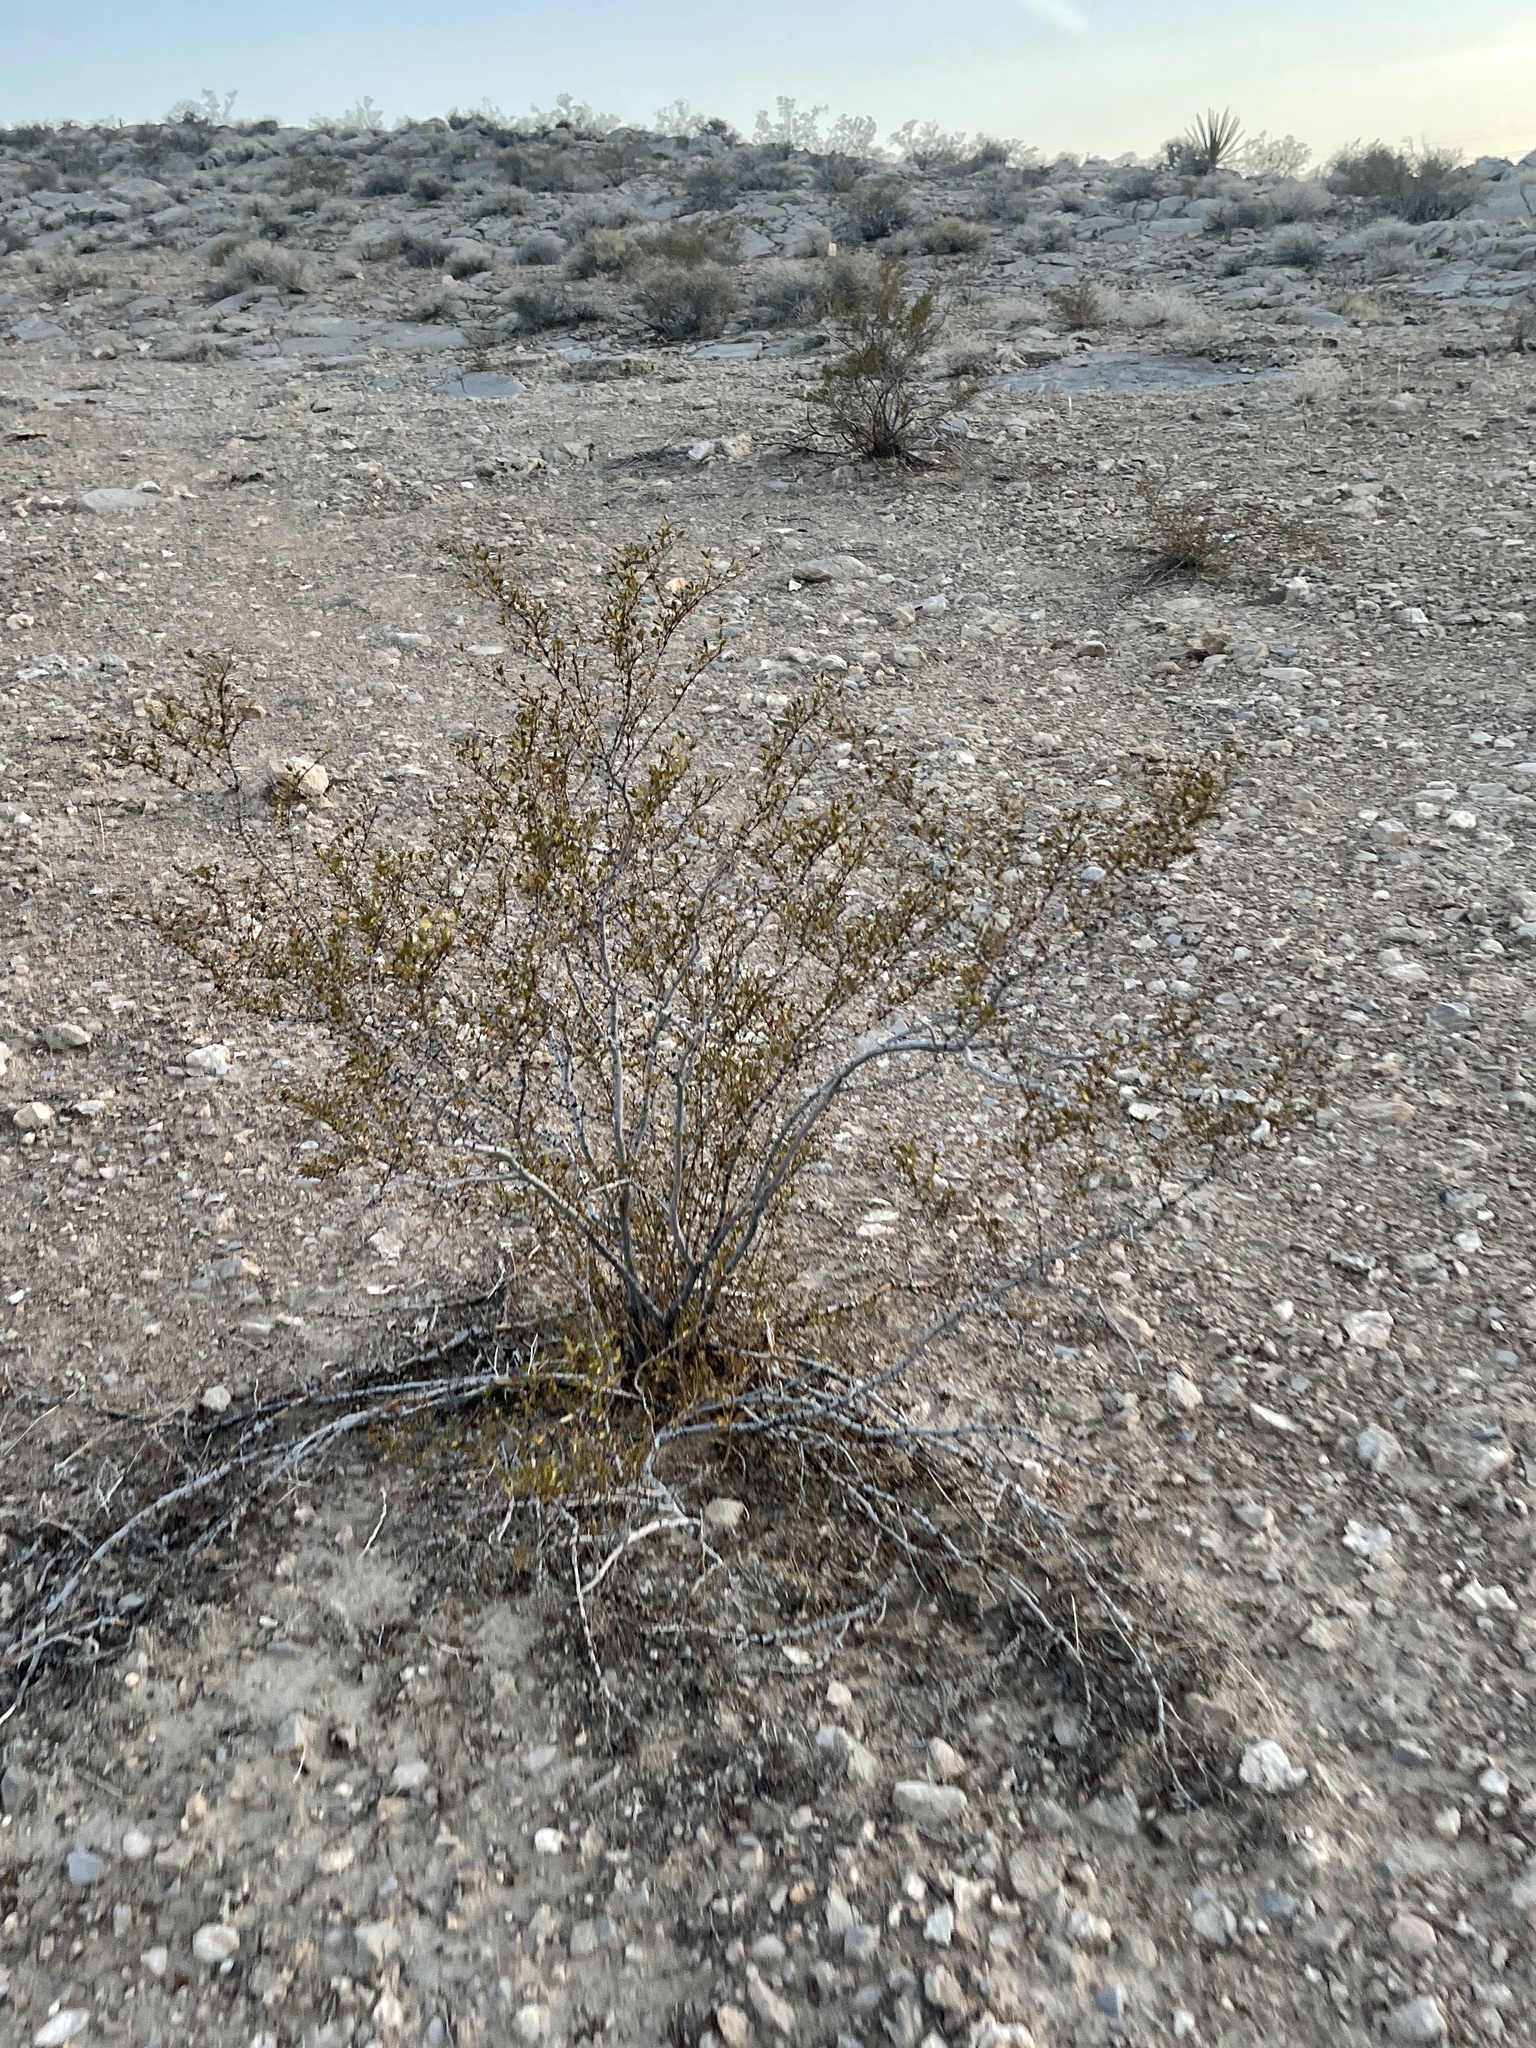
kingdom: Plantae
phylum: Tracheophyta
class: Magnoliopsida
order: Zygophyllales
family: Zygophyllaceae
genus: Larrea
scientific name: Larrea tridentata
